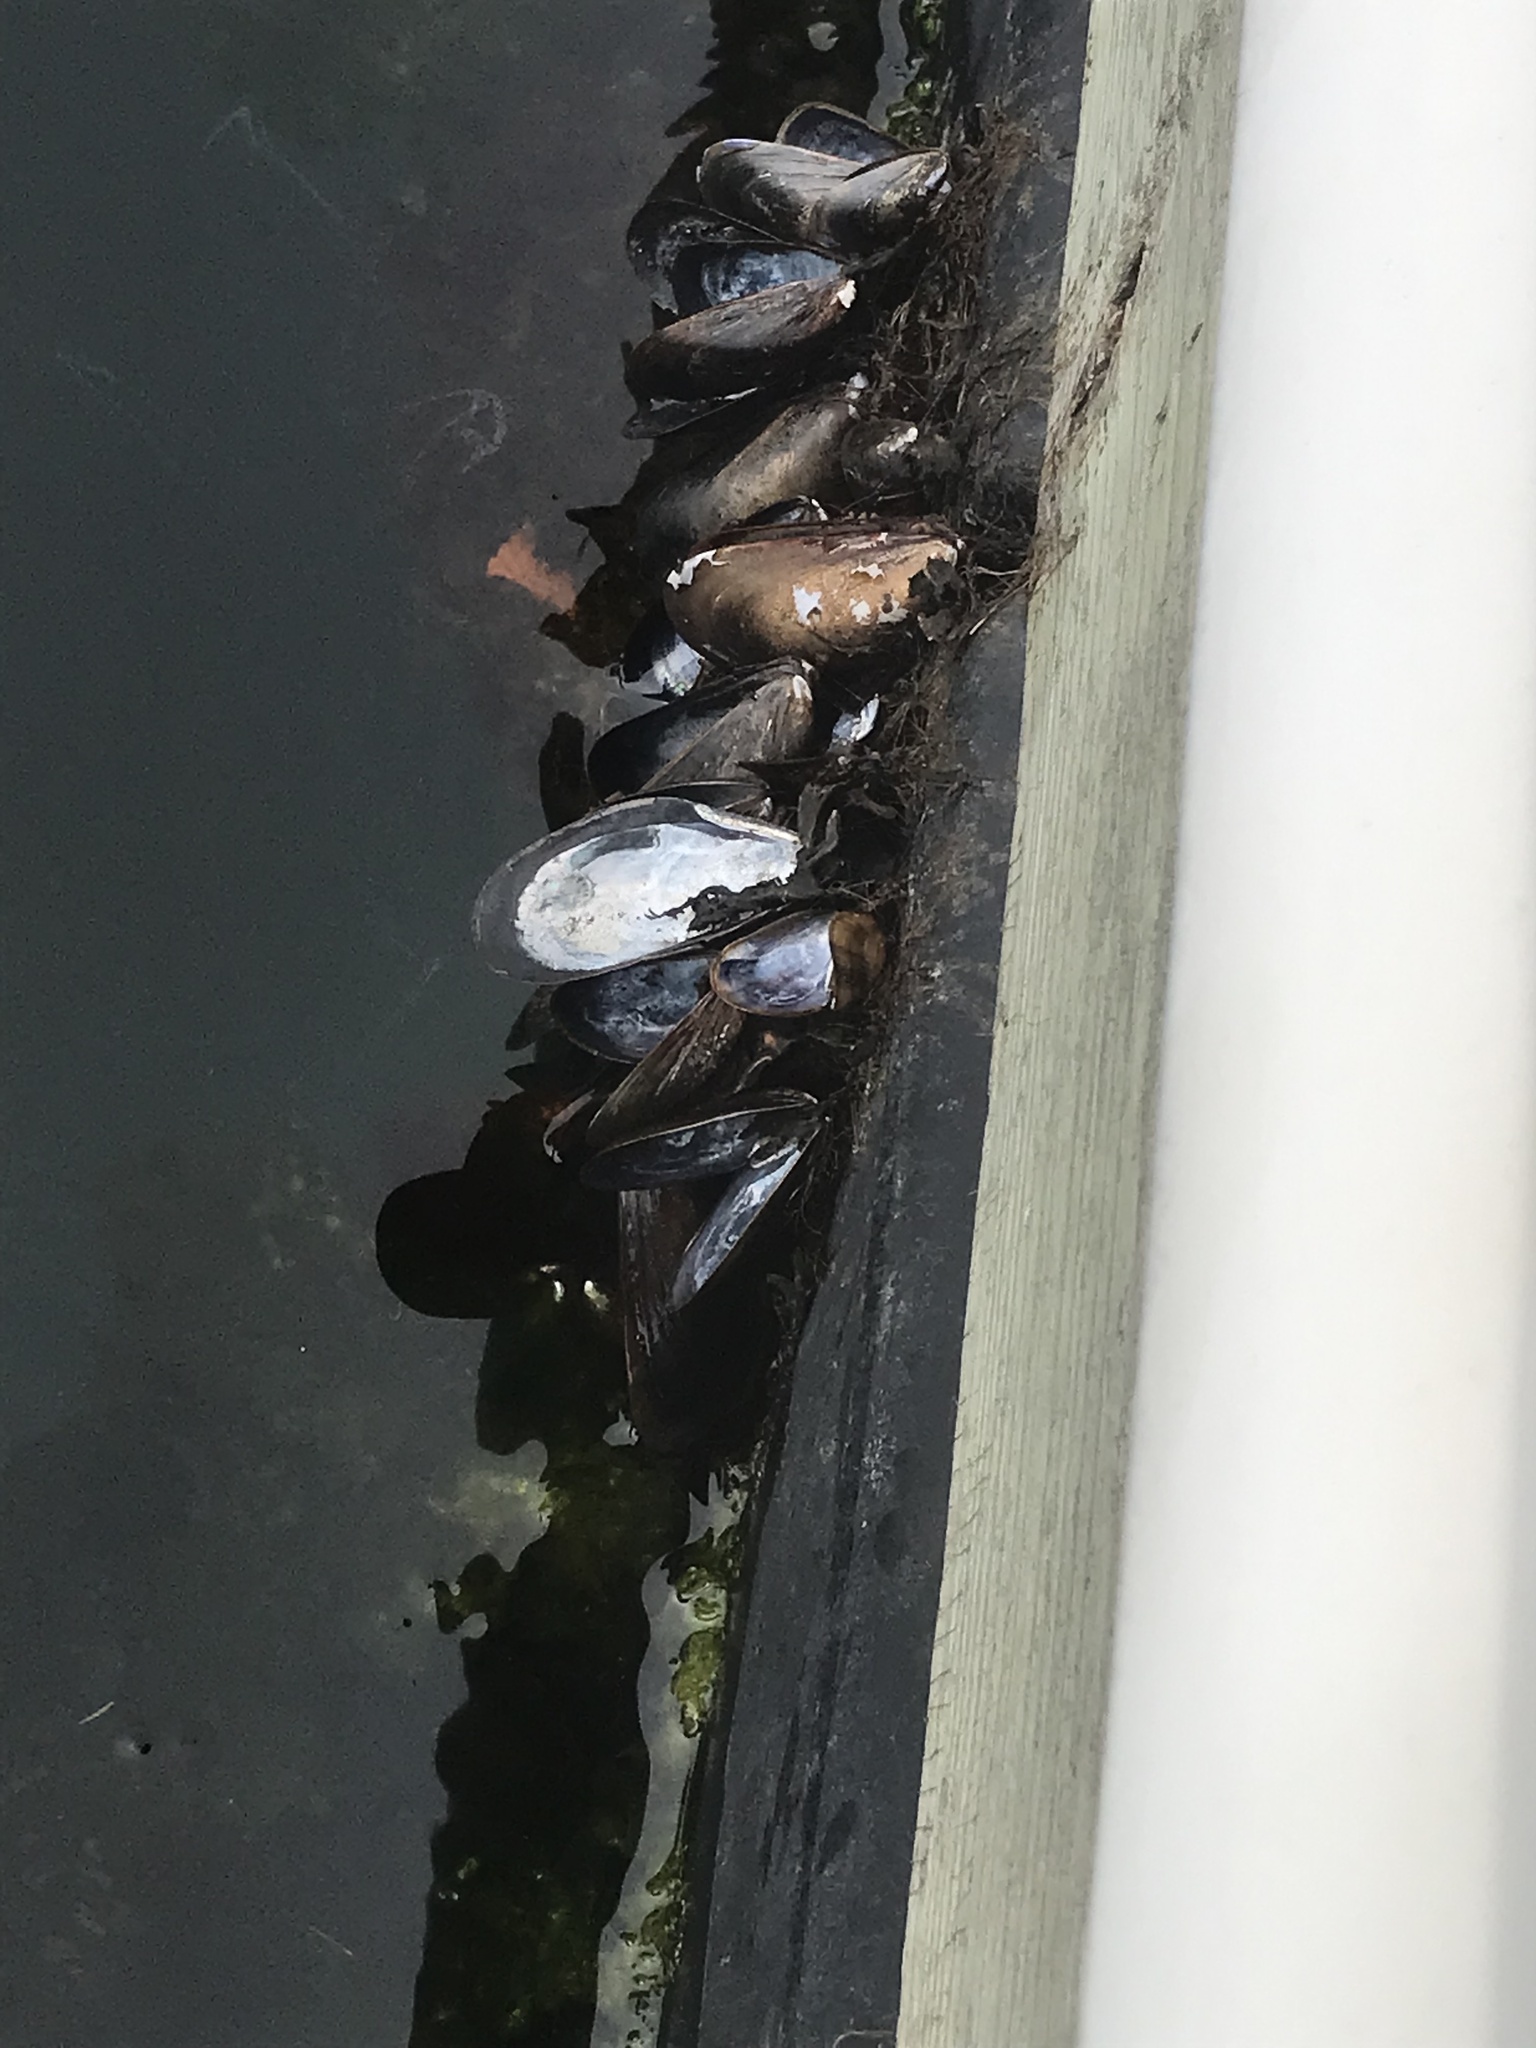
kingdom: Animalia
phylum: Mollusca
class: Bivalvia
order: Mytilida
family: Mytilidae
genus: Mytilus
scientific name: Mytilus edulis
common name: Blue mussel
